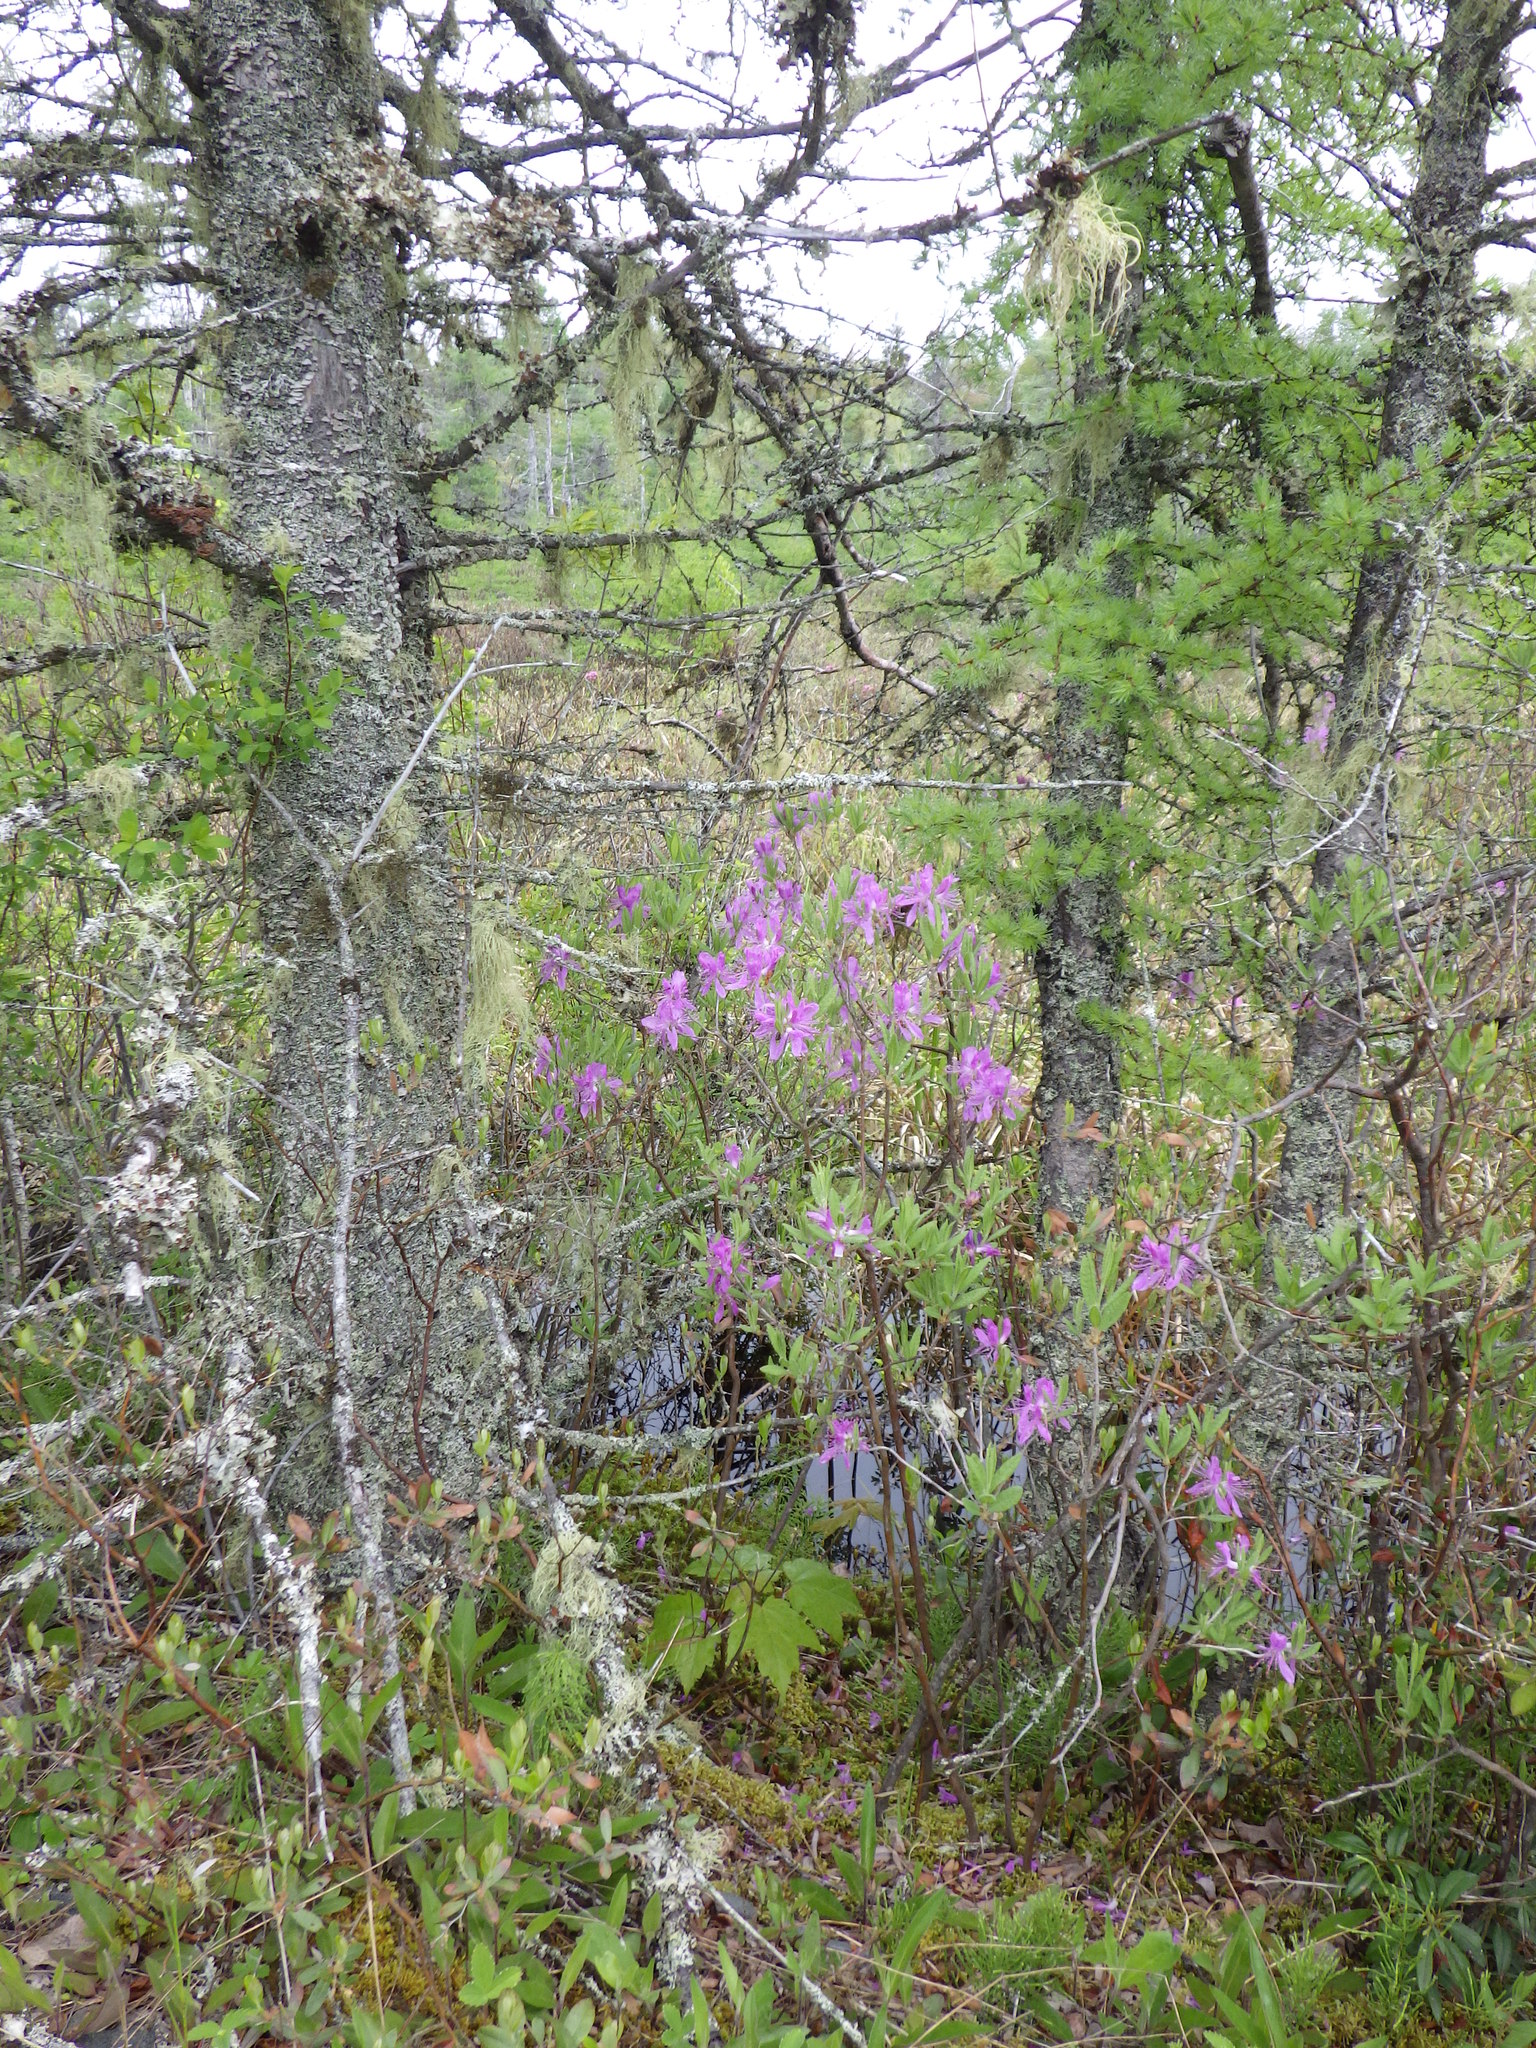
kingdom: Plantae
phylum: Tracheophyta
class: Magnoliopsida
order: Ericales
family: Ericaceae
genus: Rhododendron
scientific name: Rhododendron canadense
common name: Rhodora
